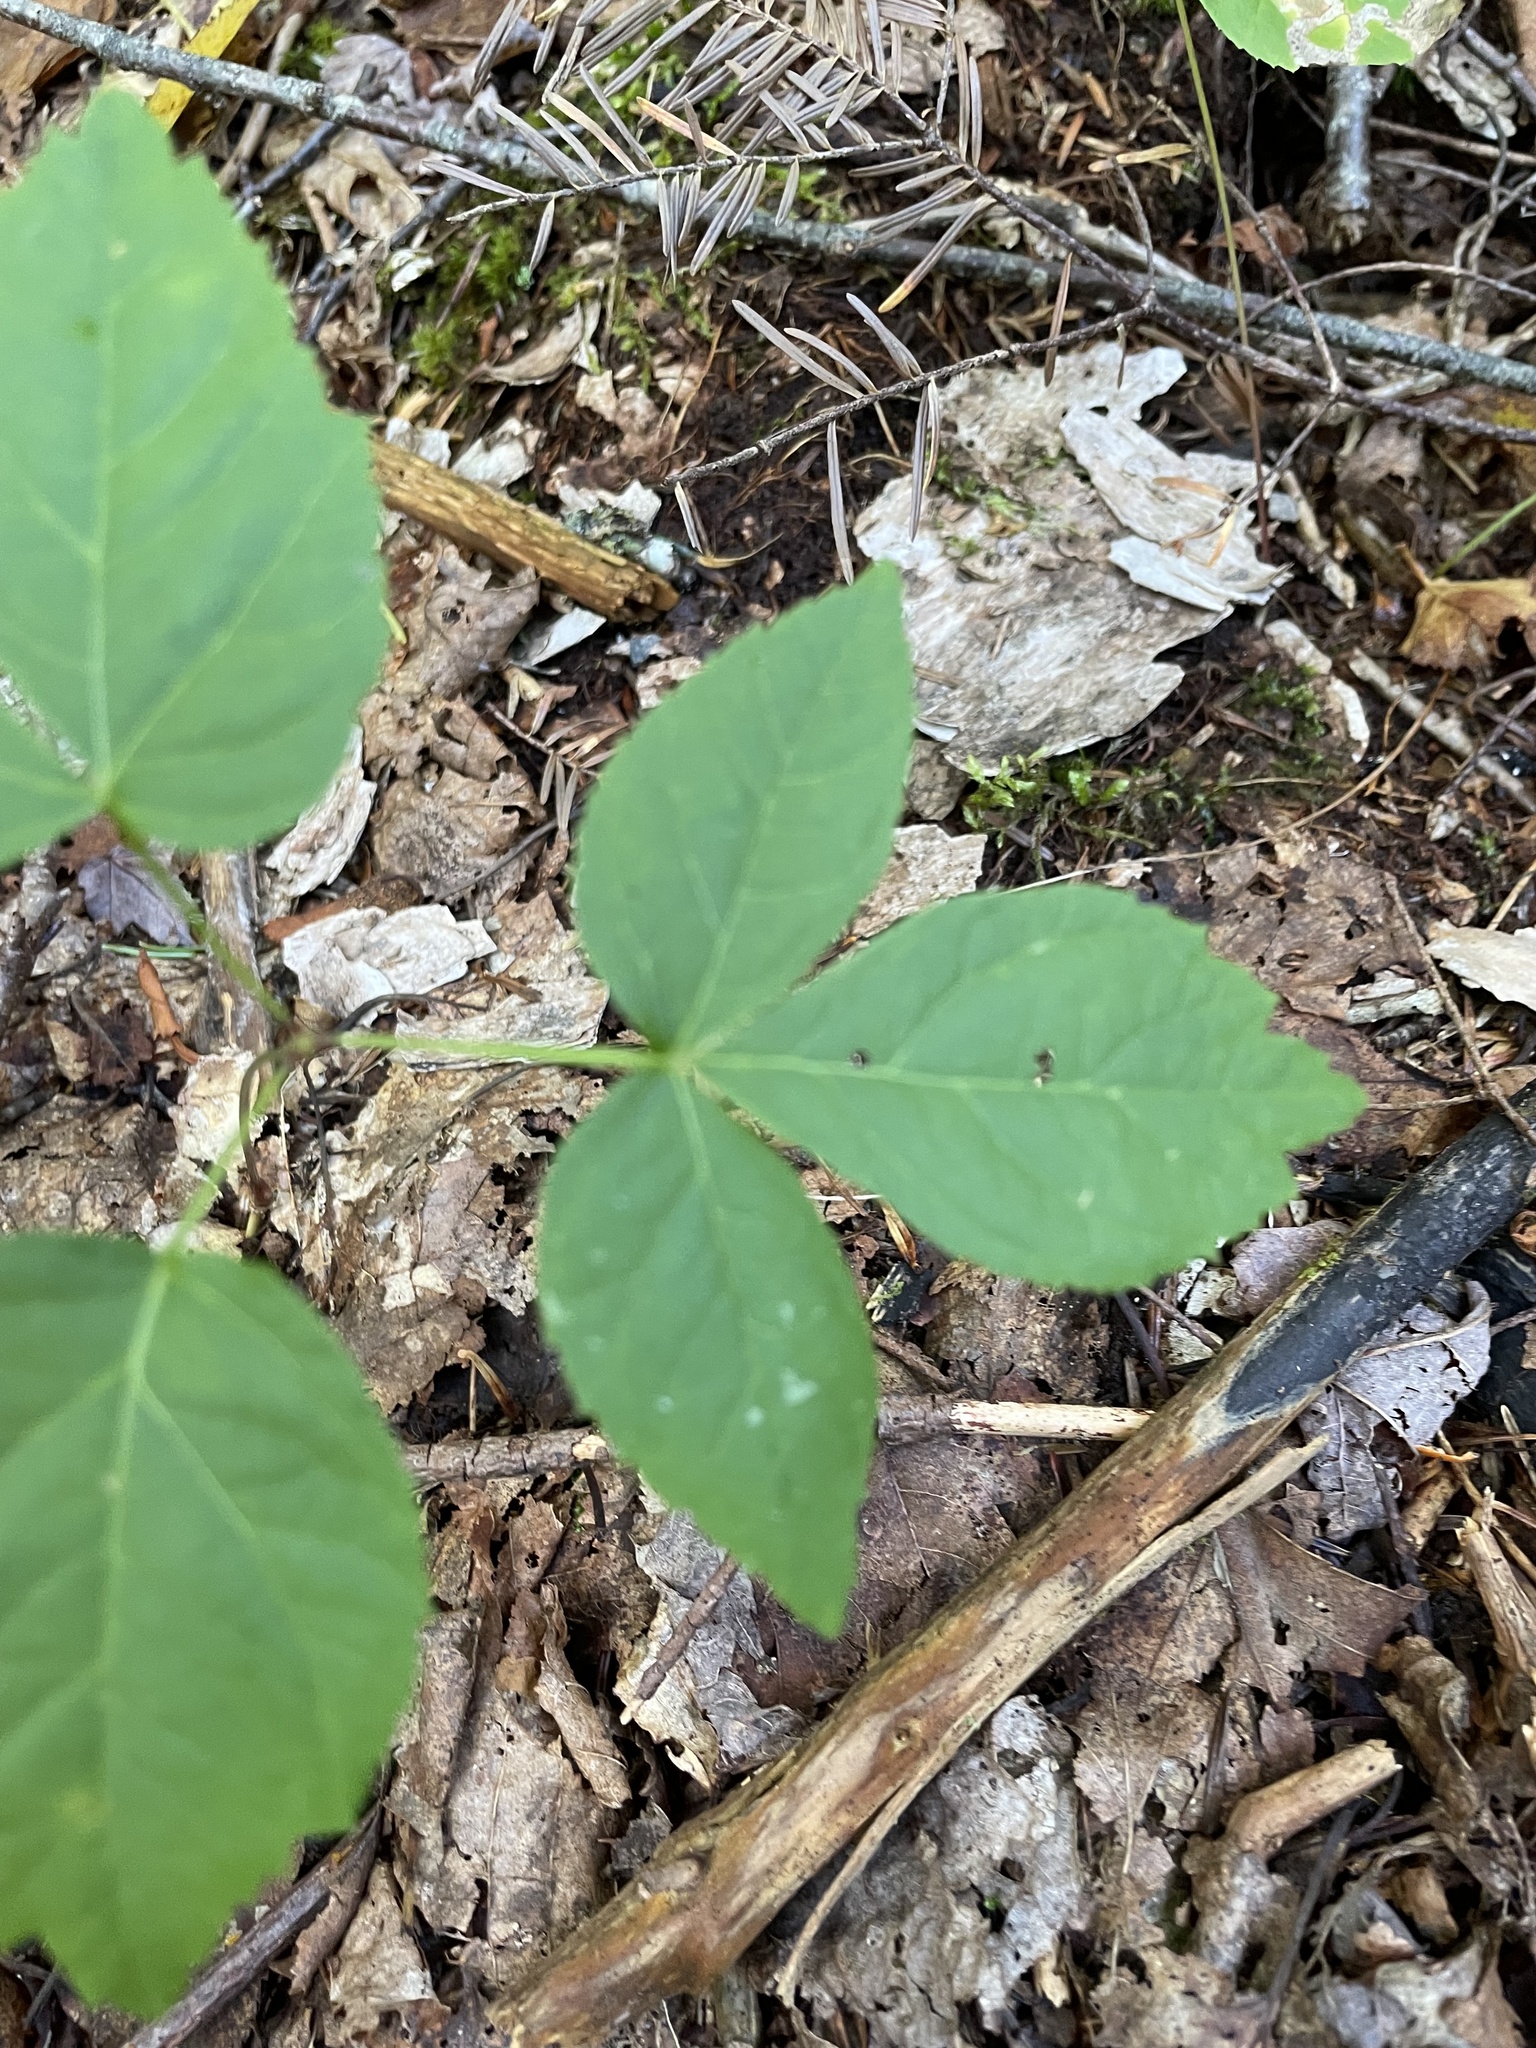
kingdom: Plantae
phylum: Tracheophyta
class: Magnoliopsida
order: Apiales
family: Araliaceae
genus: Aralia
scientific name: Aralia nudicaulis
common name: Wild sarsaparilla
